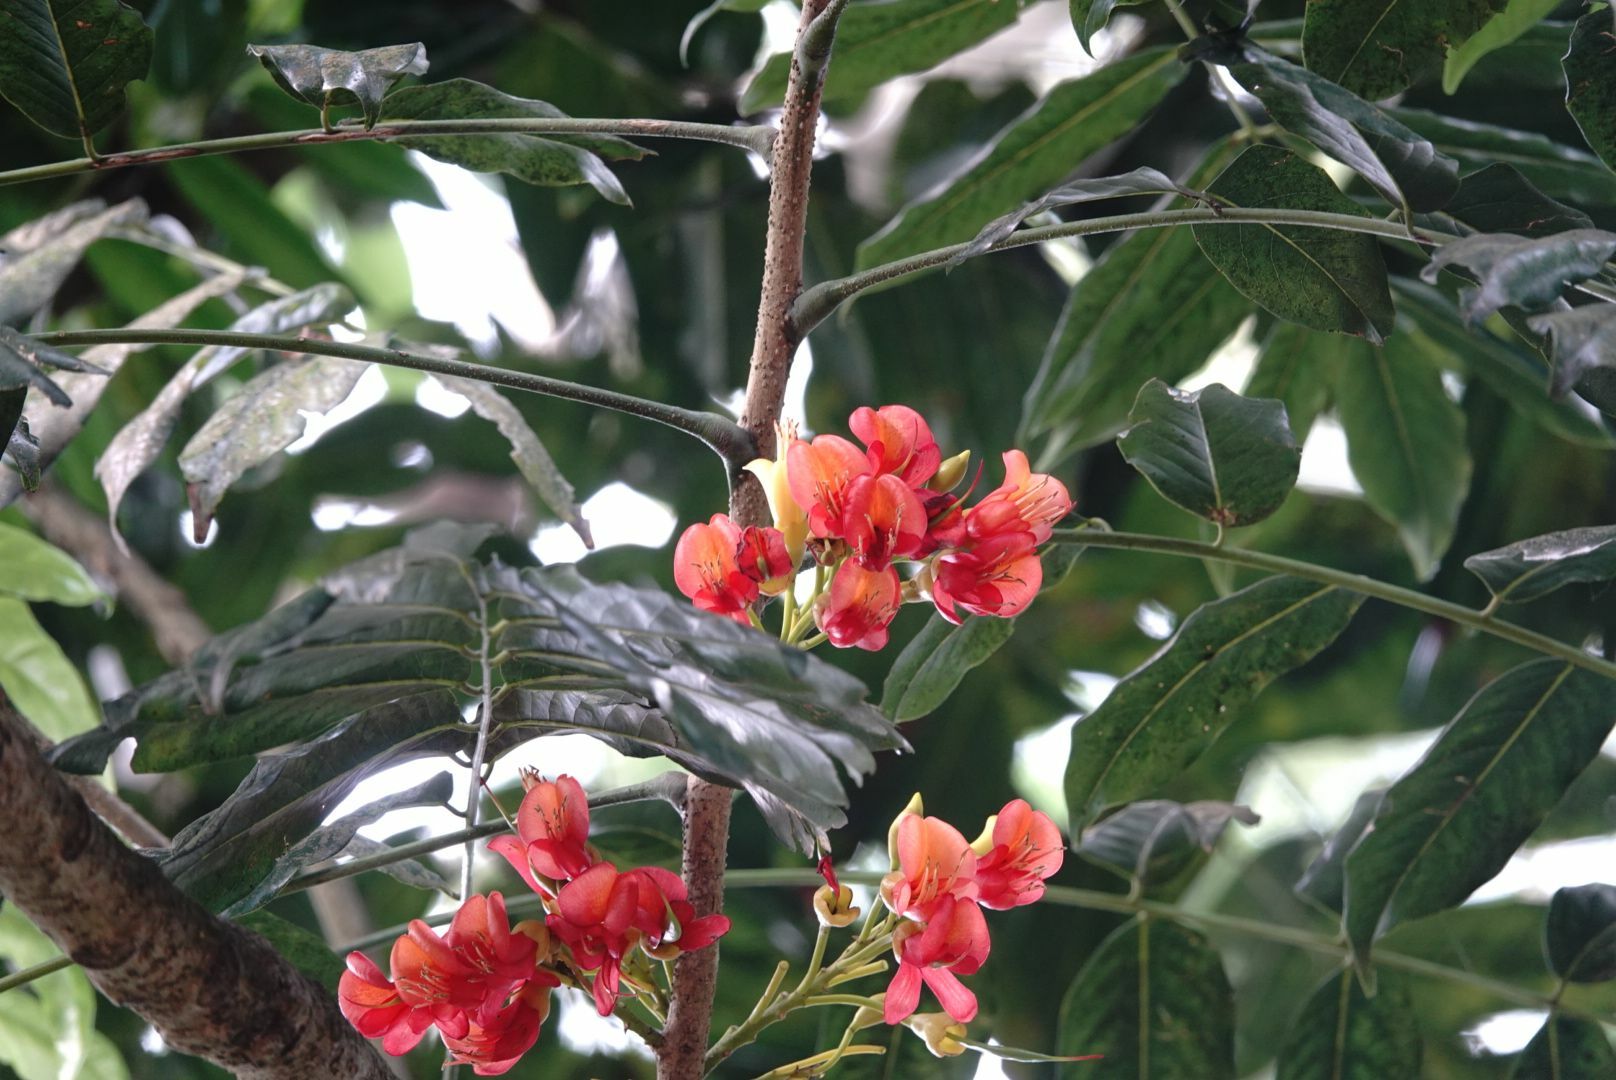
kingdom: Plantae
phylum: Tracheophyta
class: Magnoliopsida
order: Fabales
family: Fabaceae
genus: Castanospermum
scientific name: Castanospermum australe
